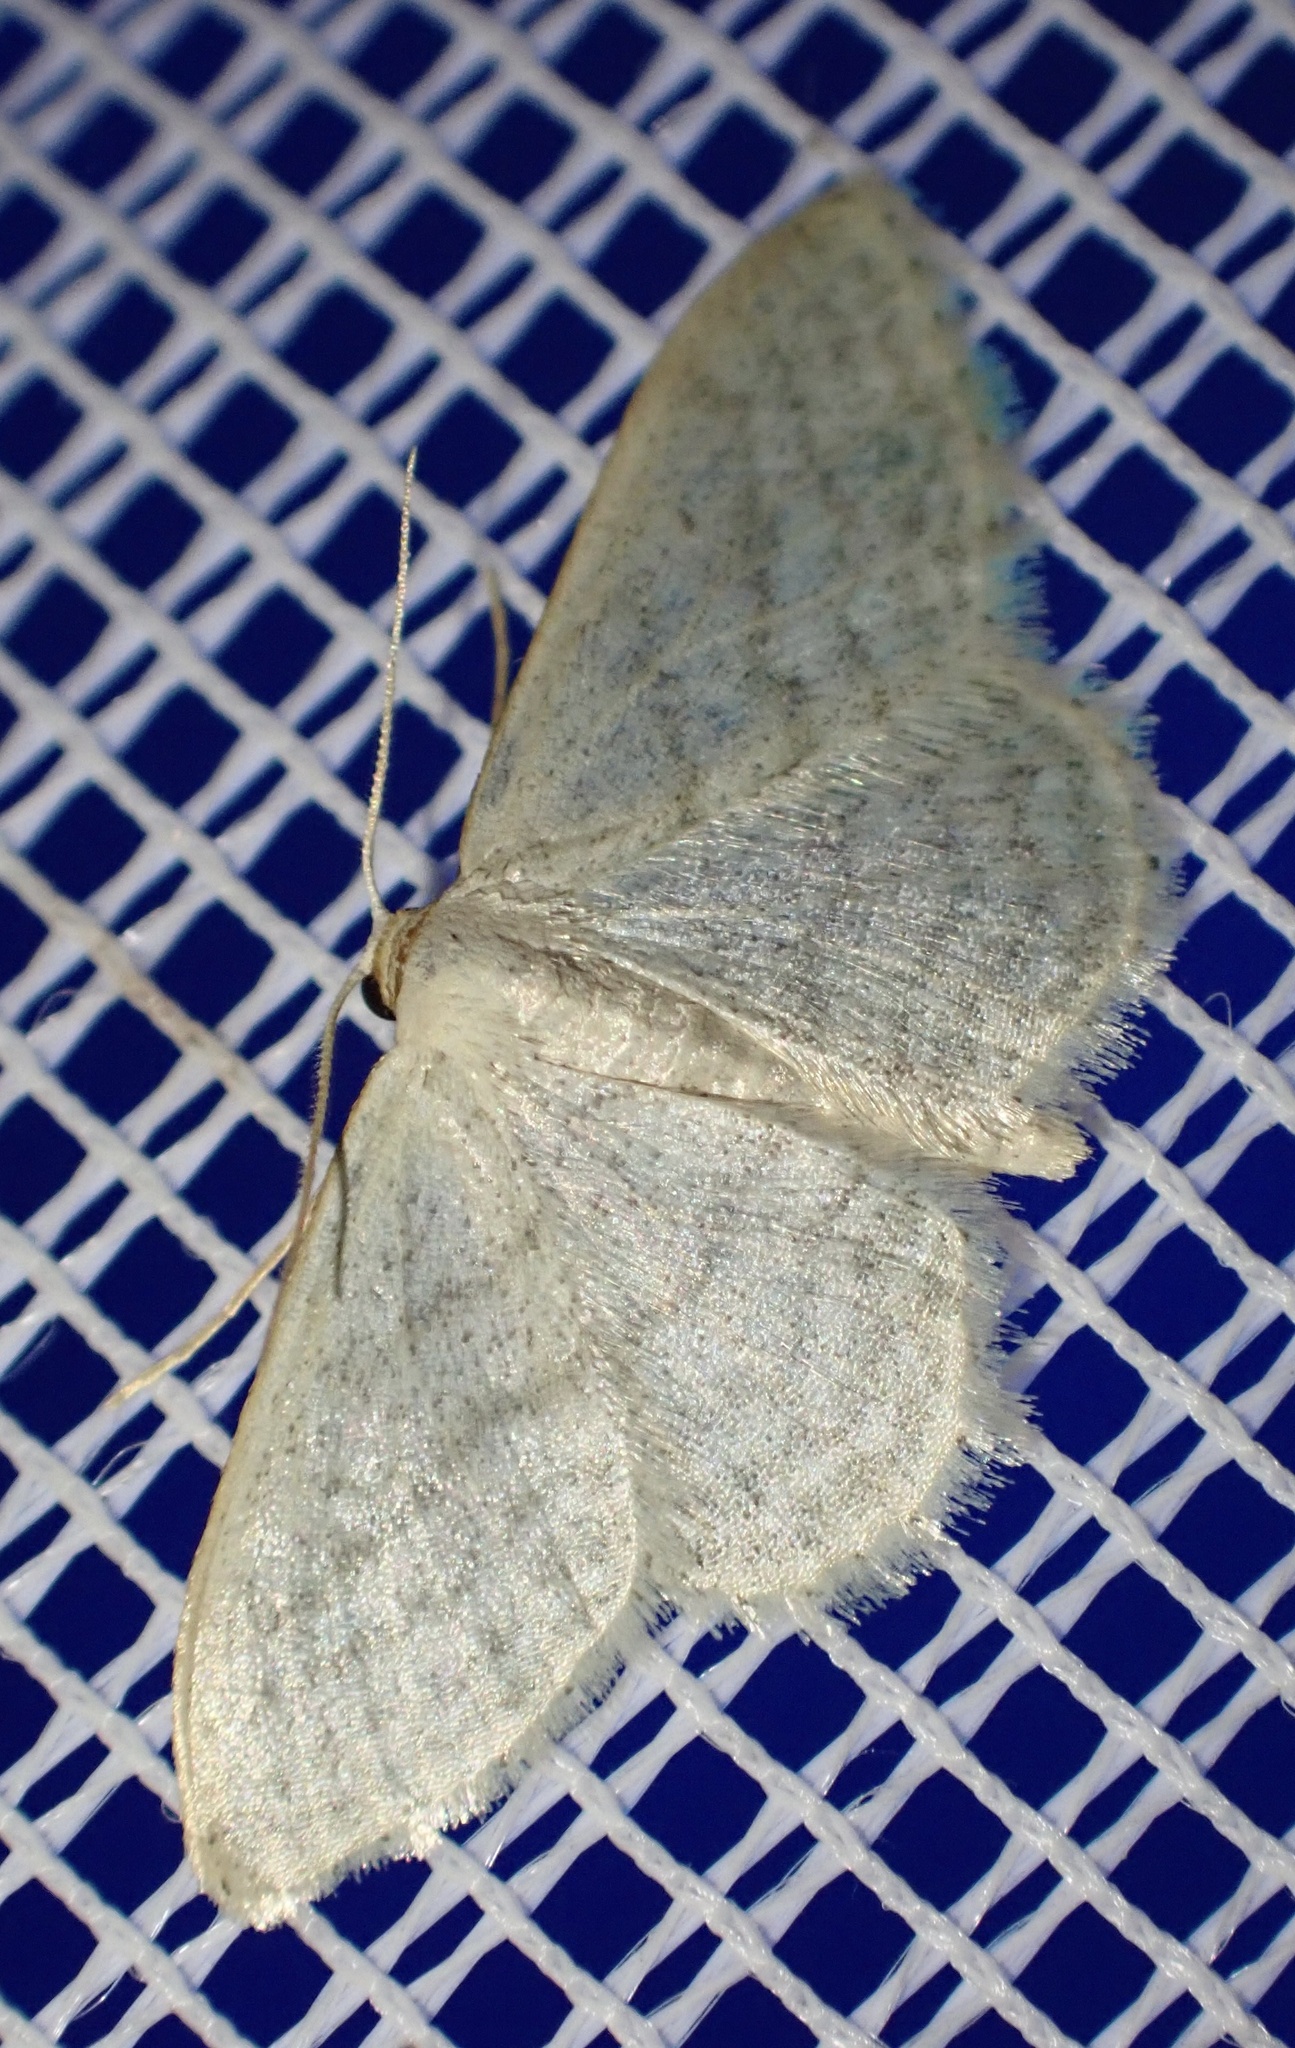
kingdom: Animalia
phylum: Arthropoda
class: Insecta
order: Lepidoptera
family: Geometridae
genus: Idaea
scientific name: Idaea subsericeata
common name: Satin wave
